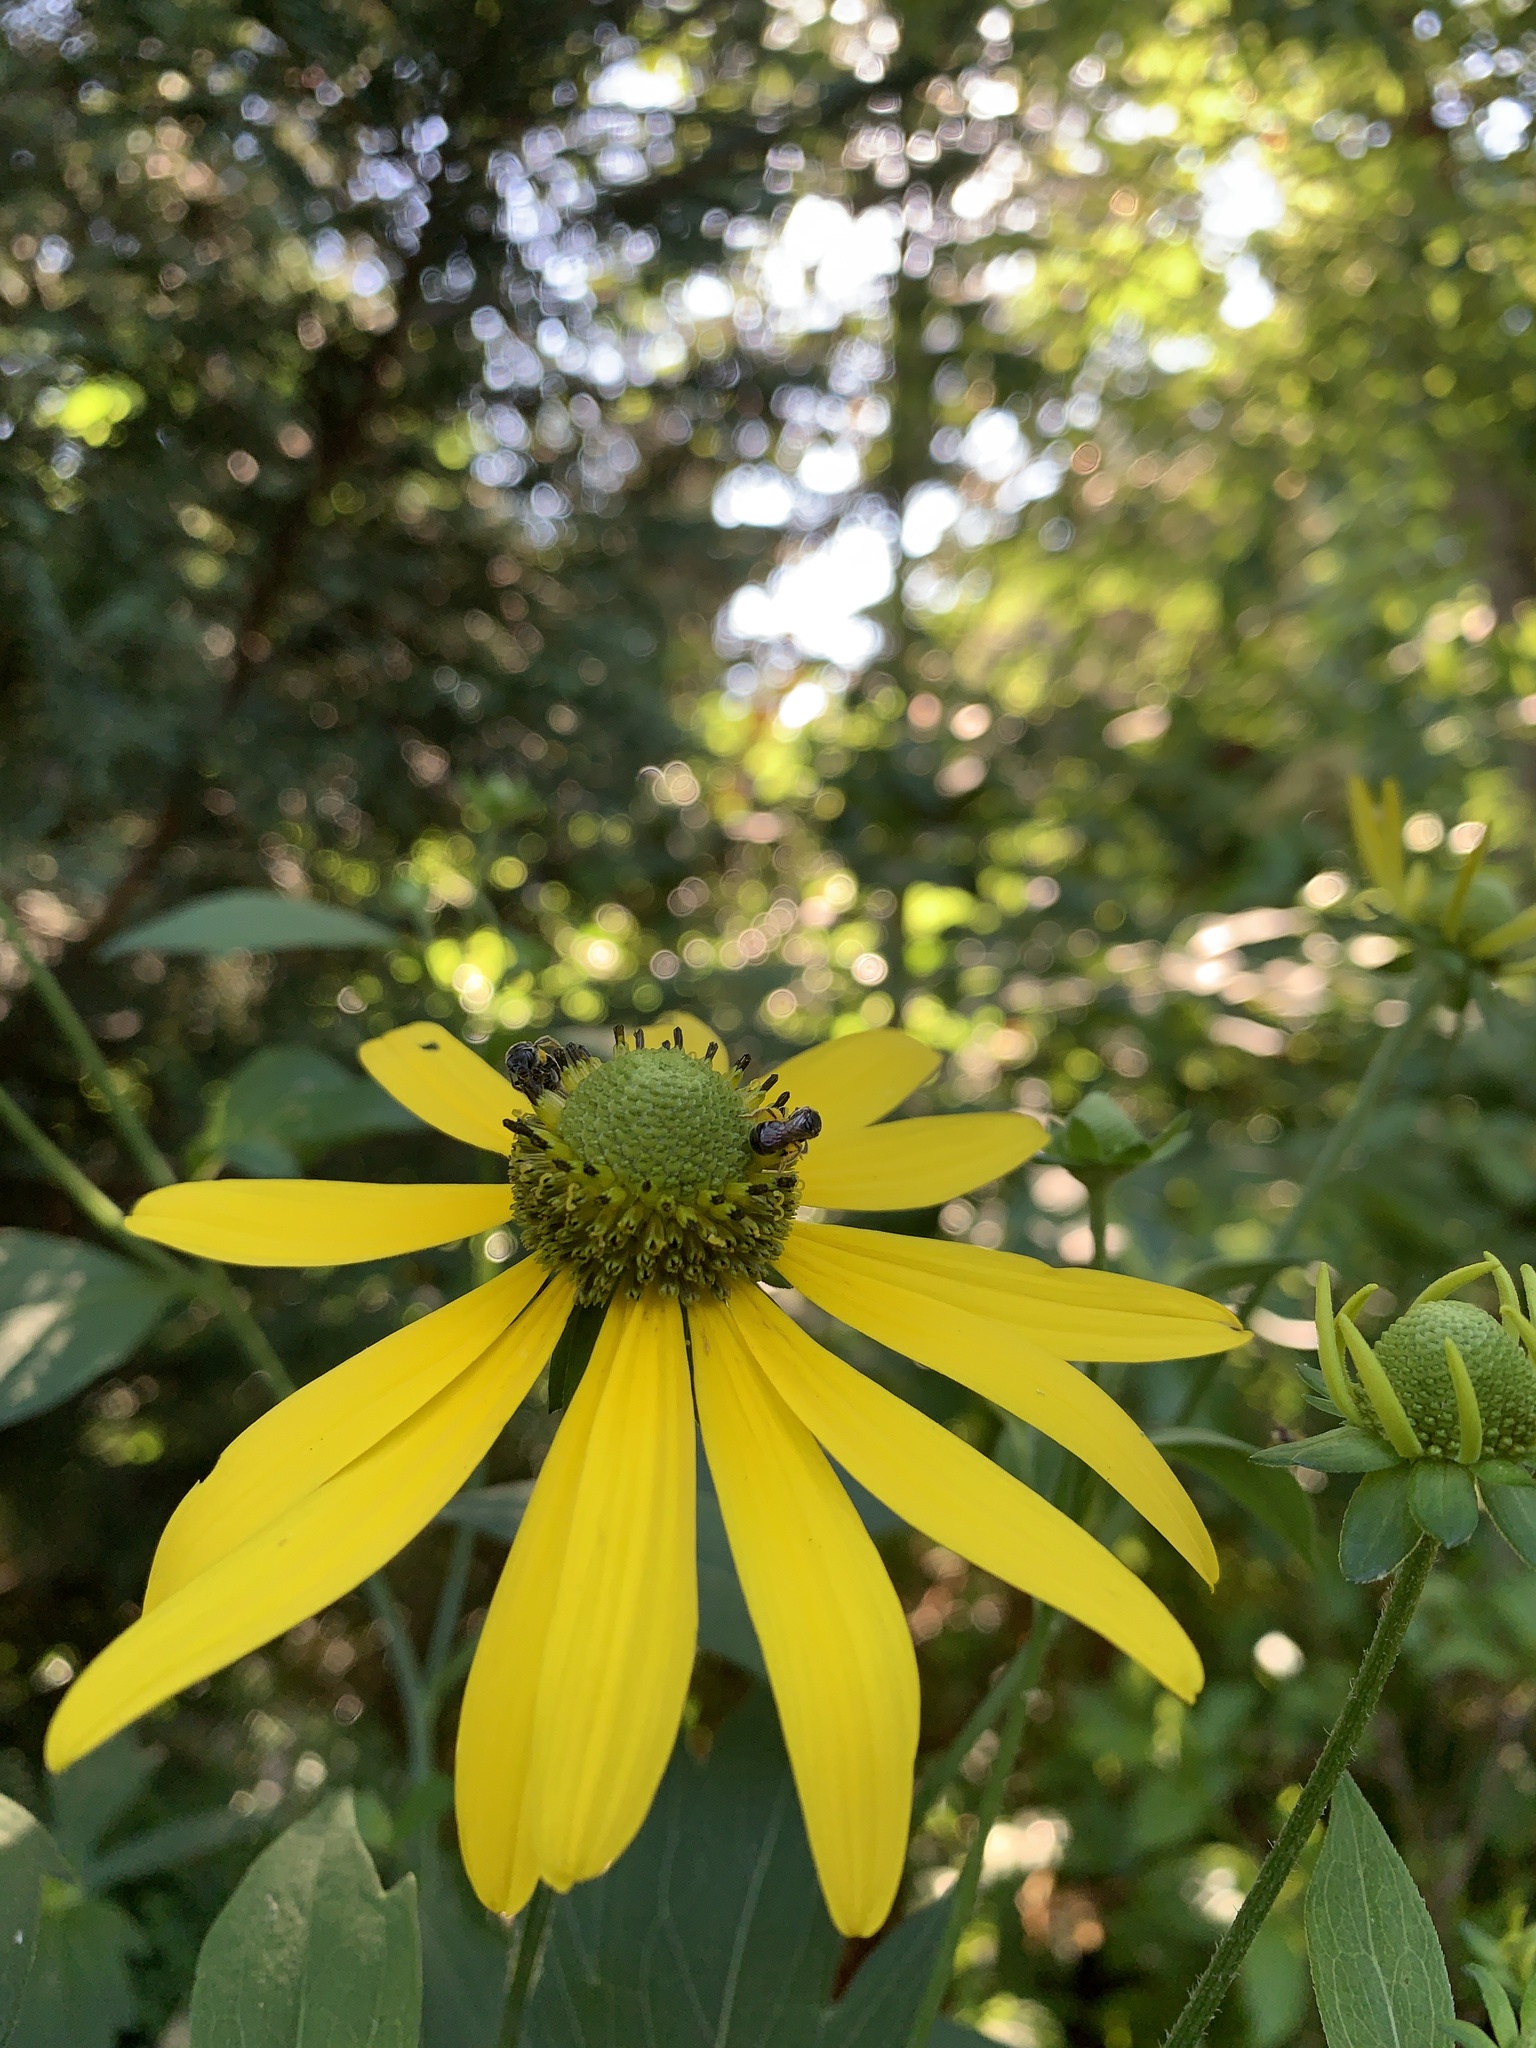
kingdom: Plantae
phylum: Tracheophyta
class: Magnoliopsida
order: Asterales
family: Asteraceae
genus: Rudbeckia
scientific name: Rudbeckia laciniata
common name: Coneflower
